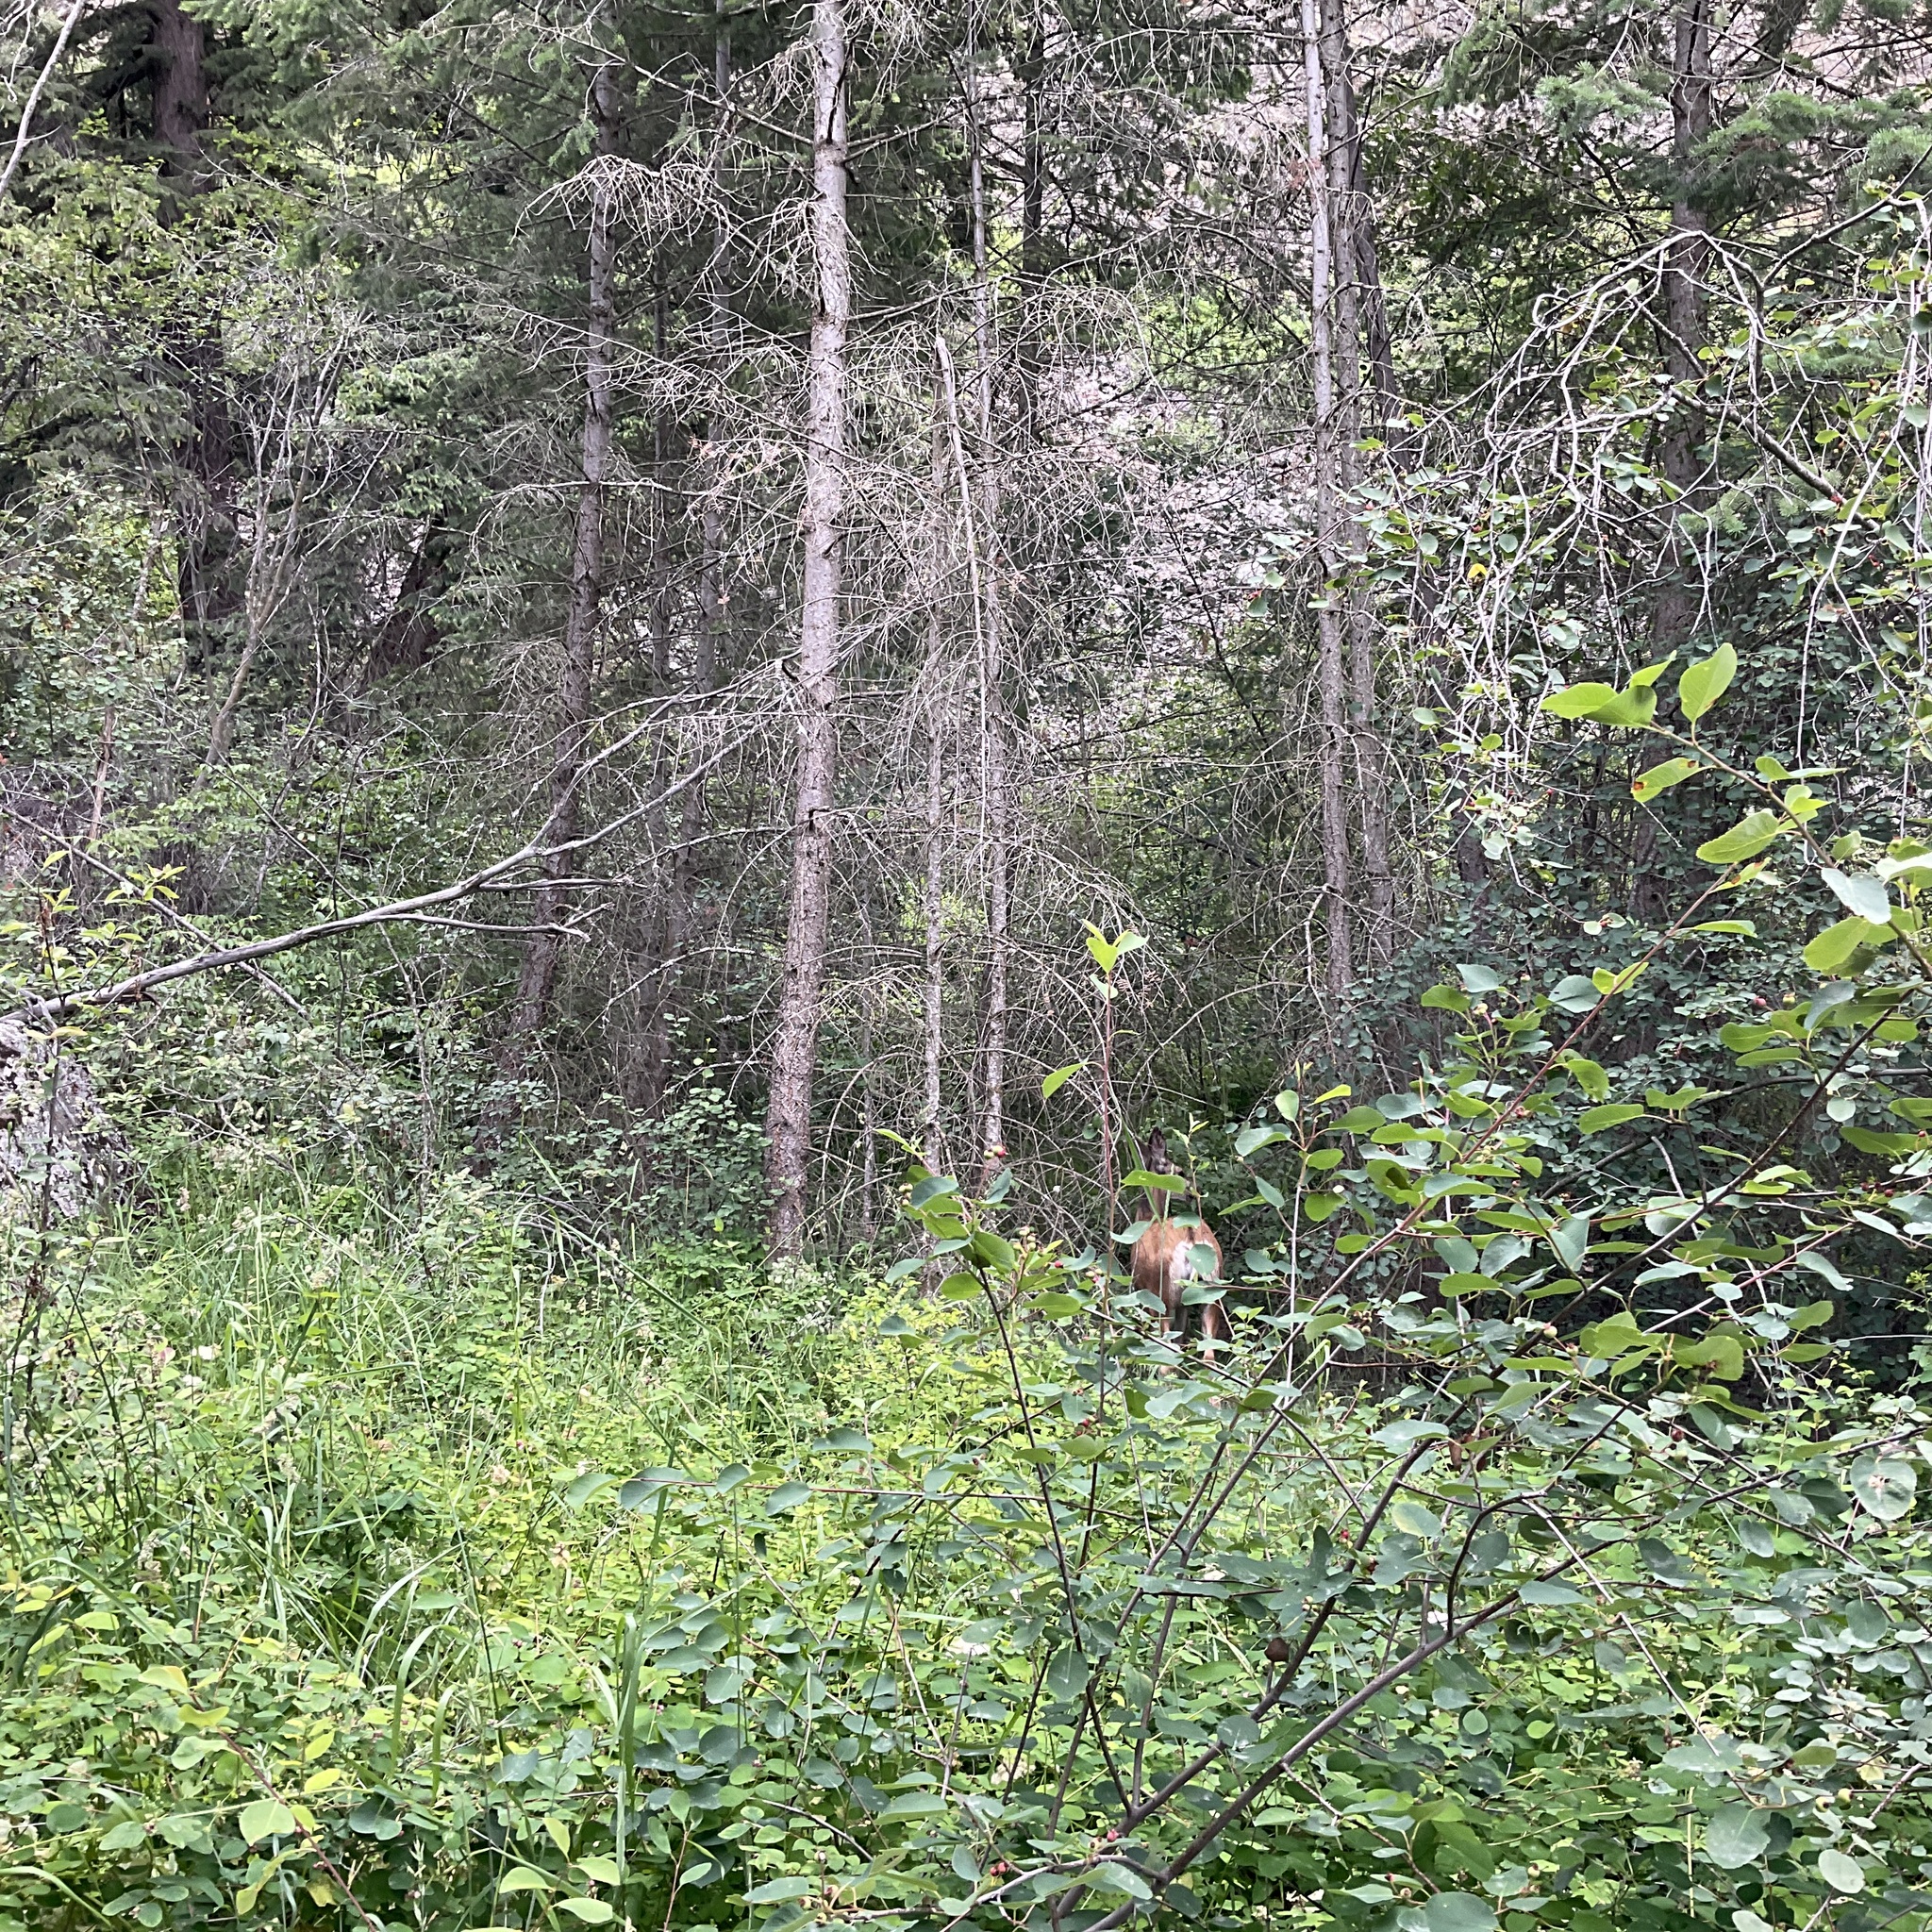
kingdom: Animalia
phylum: Chordata
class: Mammalia
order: Artiodactyla
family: Cervidae
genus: Odocoileus
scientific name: Odocoileus hemionus
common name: Mule deer
